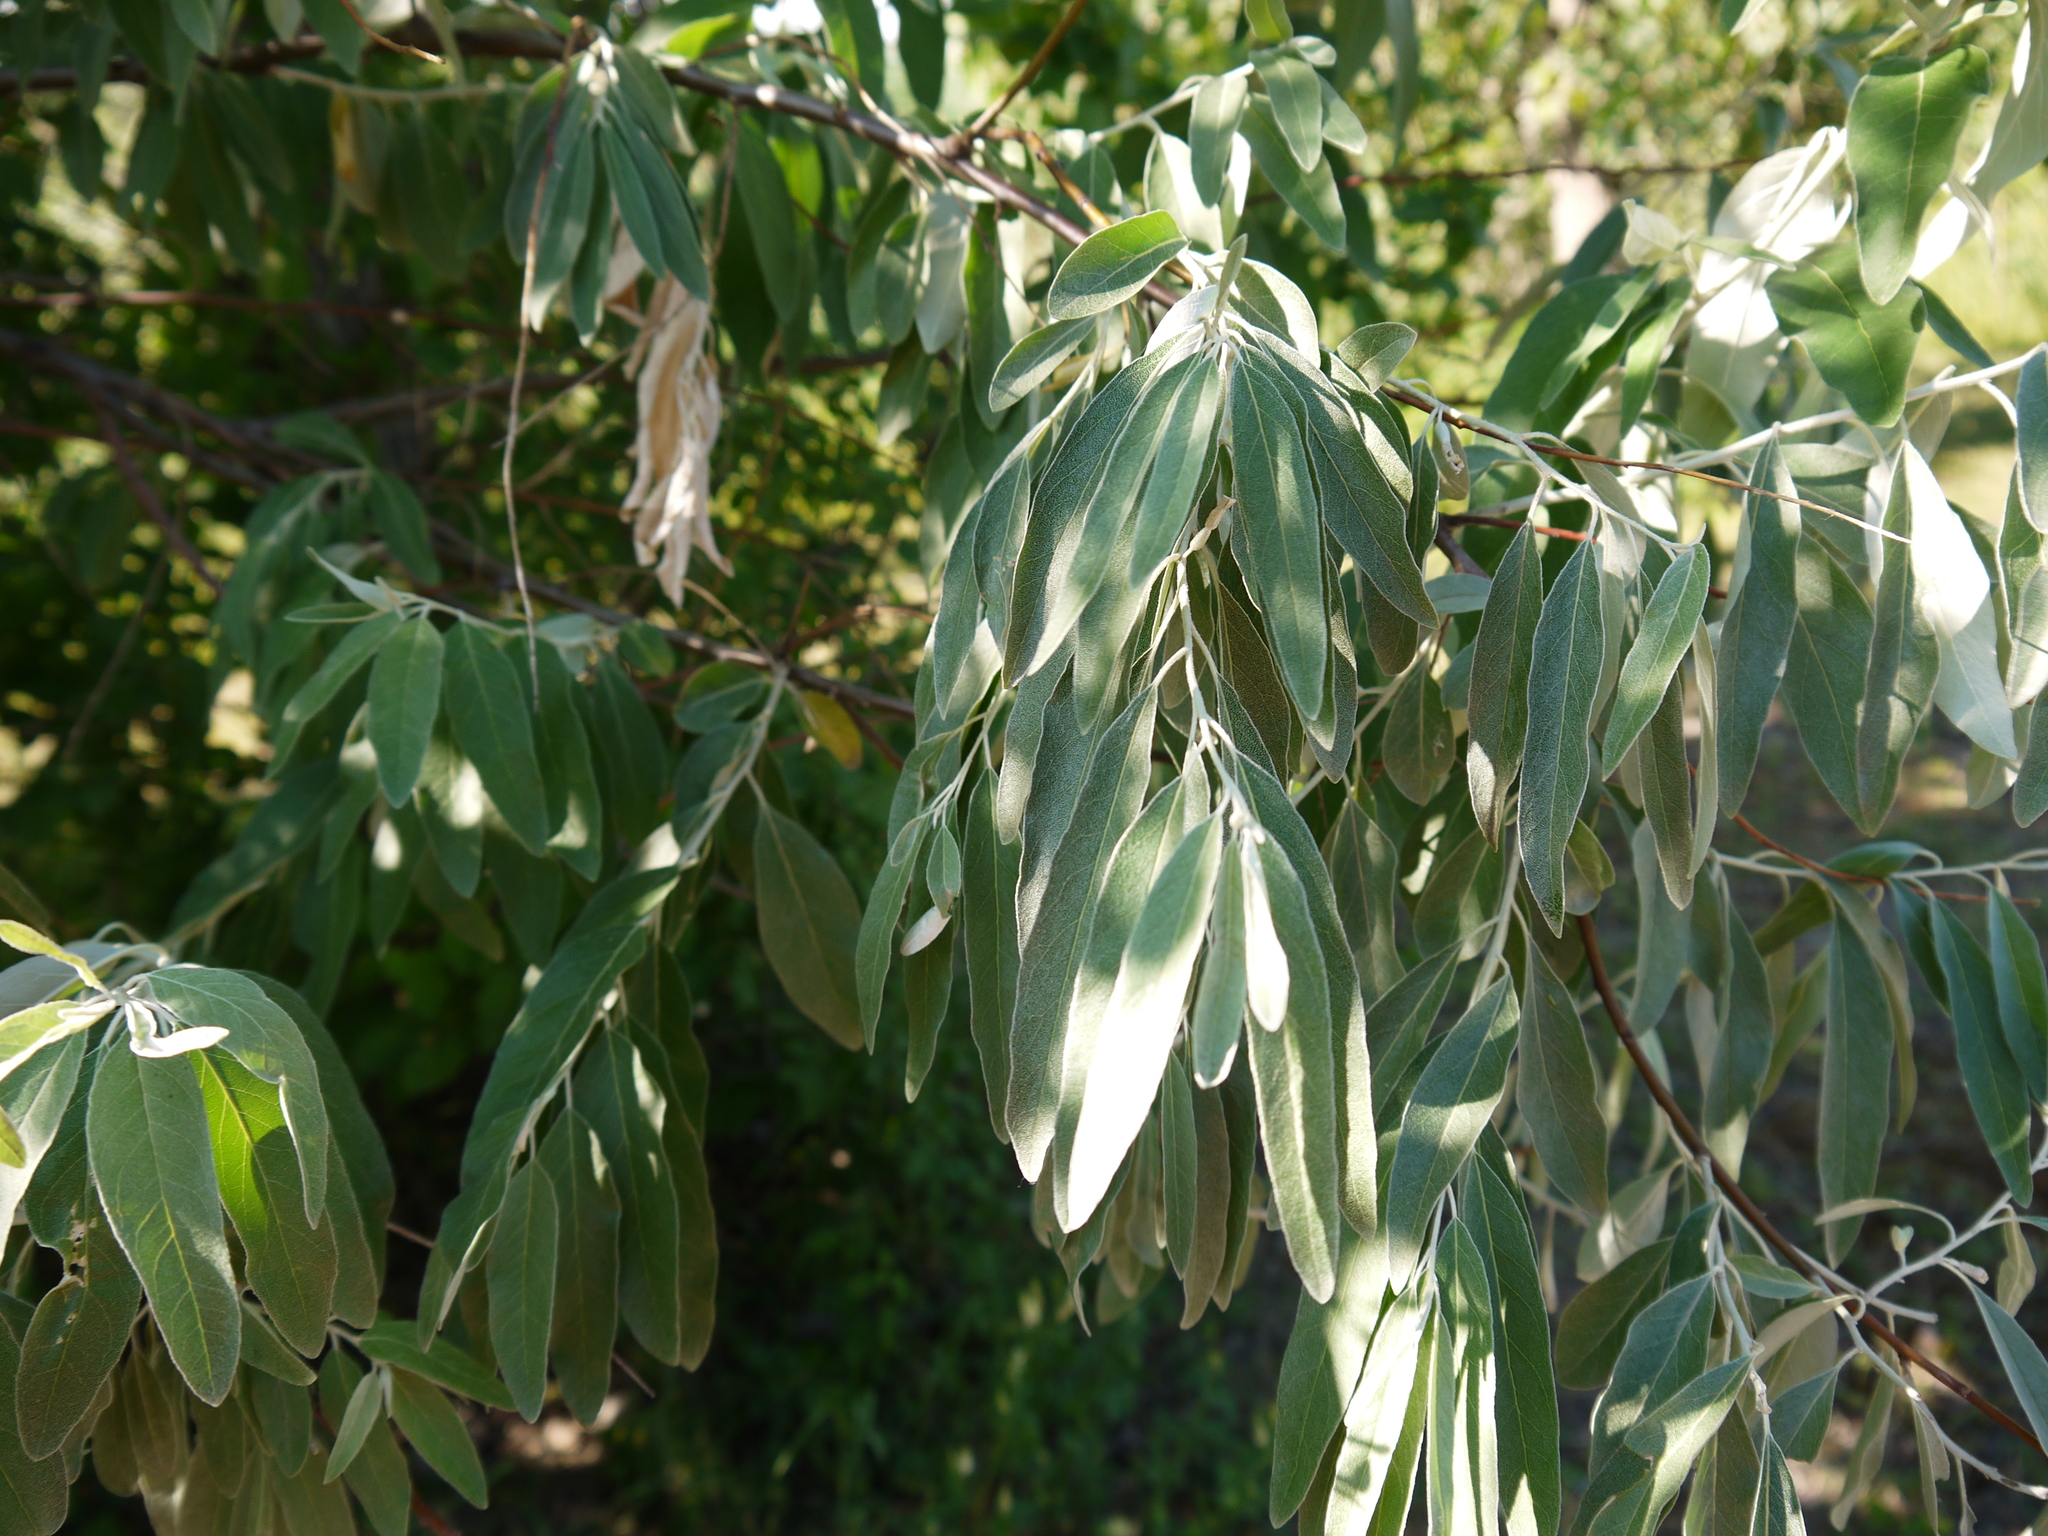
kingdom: Plantae
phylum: Tracheophyta
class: Magnoliopsida
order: Rosales
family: Elaeagnaceae
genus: Elaeagnus
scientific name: Elaeagnus angustifolia
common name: Russian olive
